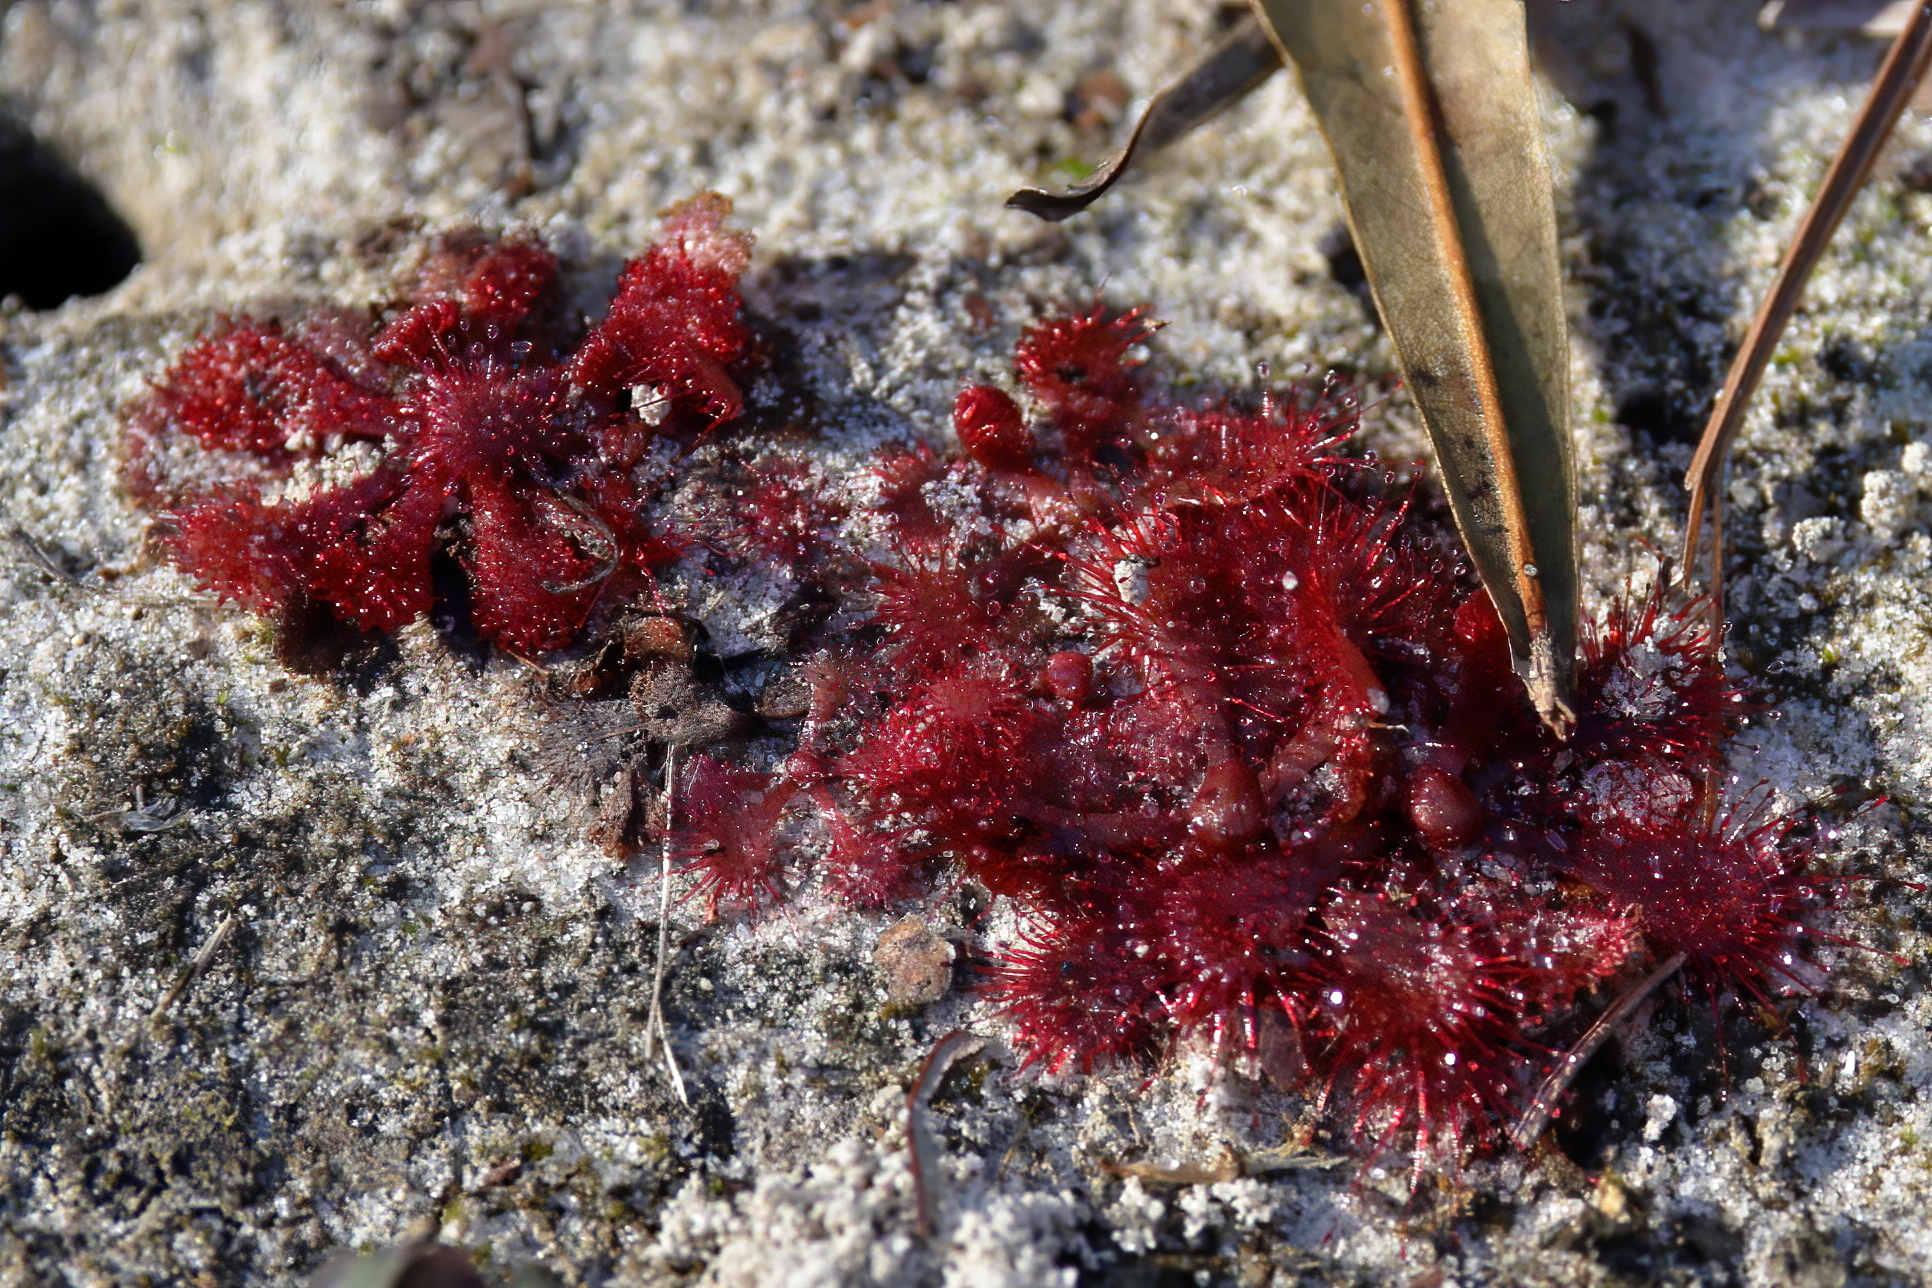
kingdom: Plantae
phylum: Tracheophyta
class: Magnoliopsida
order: Caryophyllales
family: Droseraceae
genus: Drosera
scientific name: Drosera brevifolia
